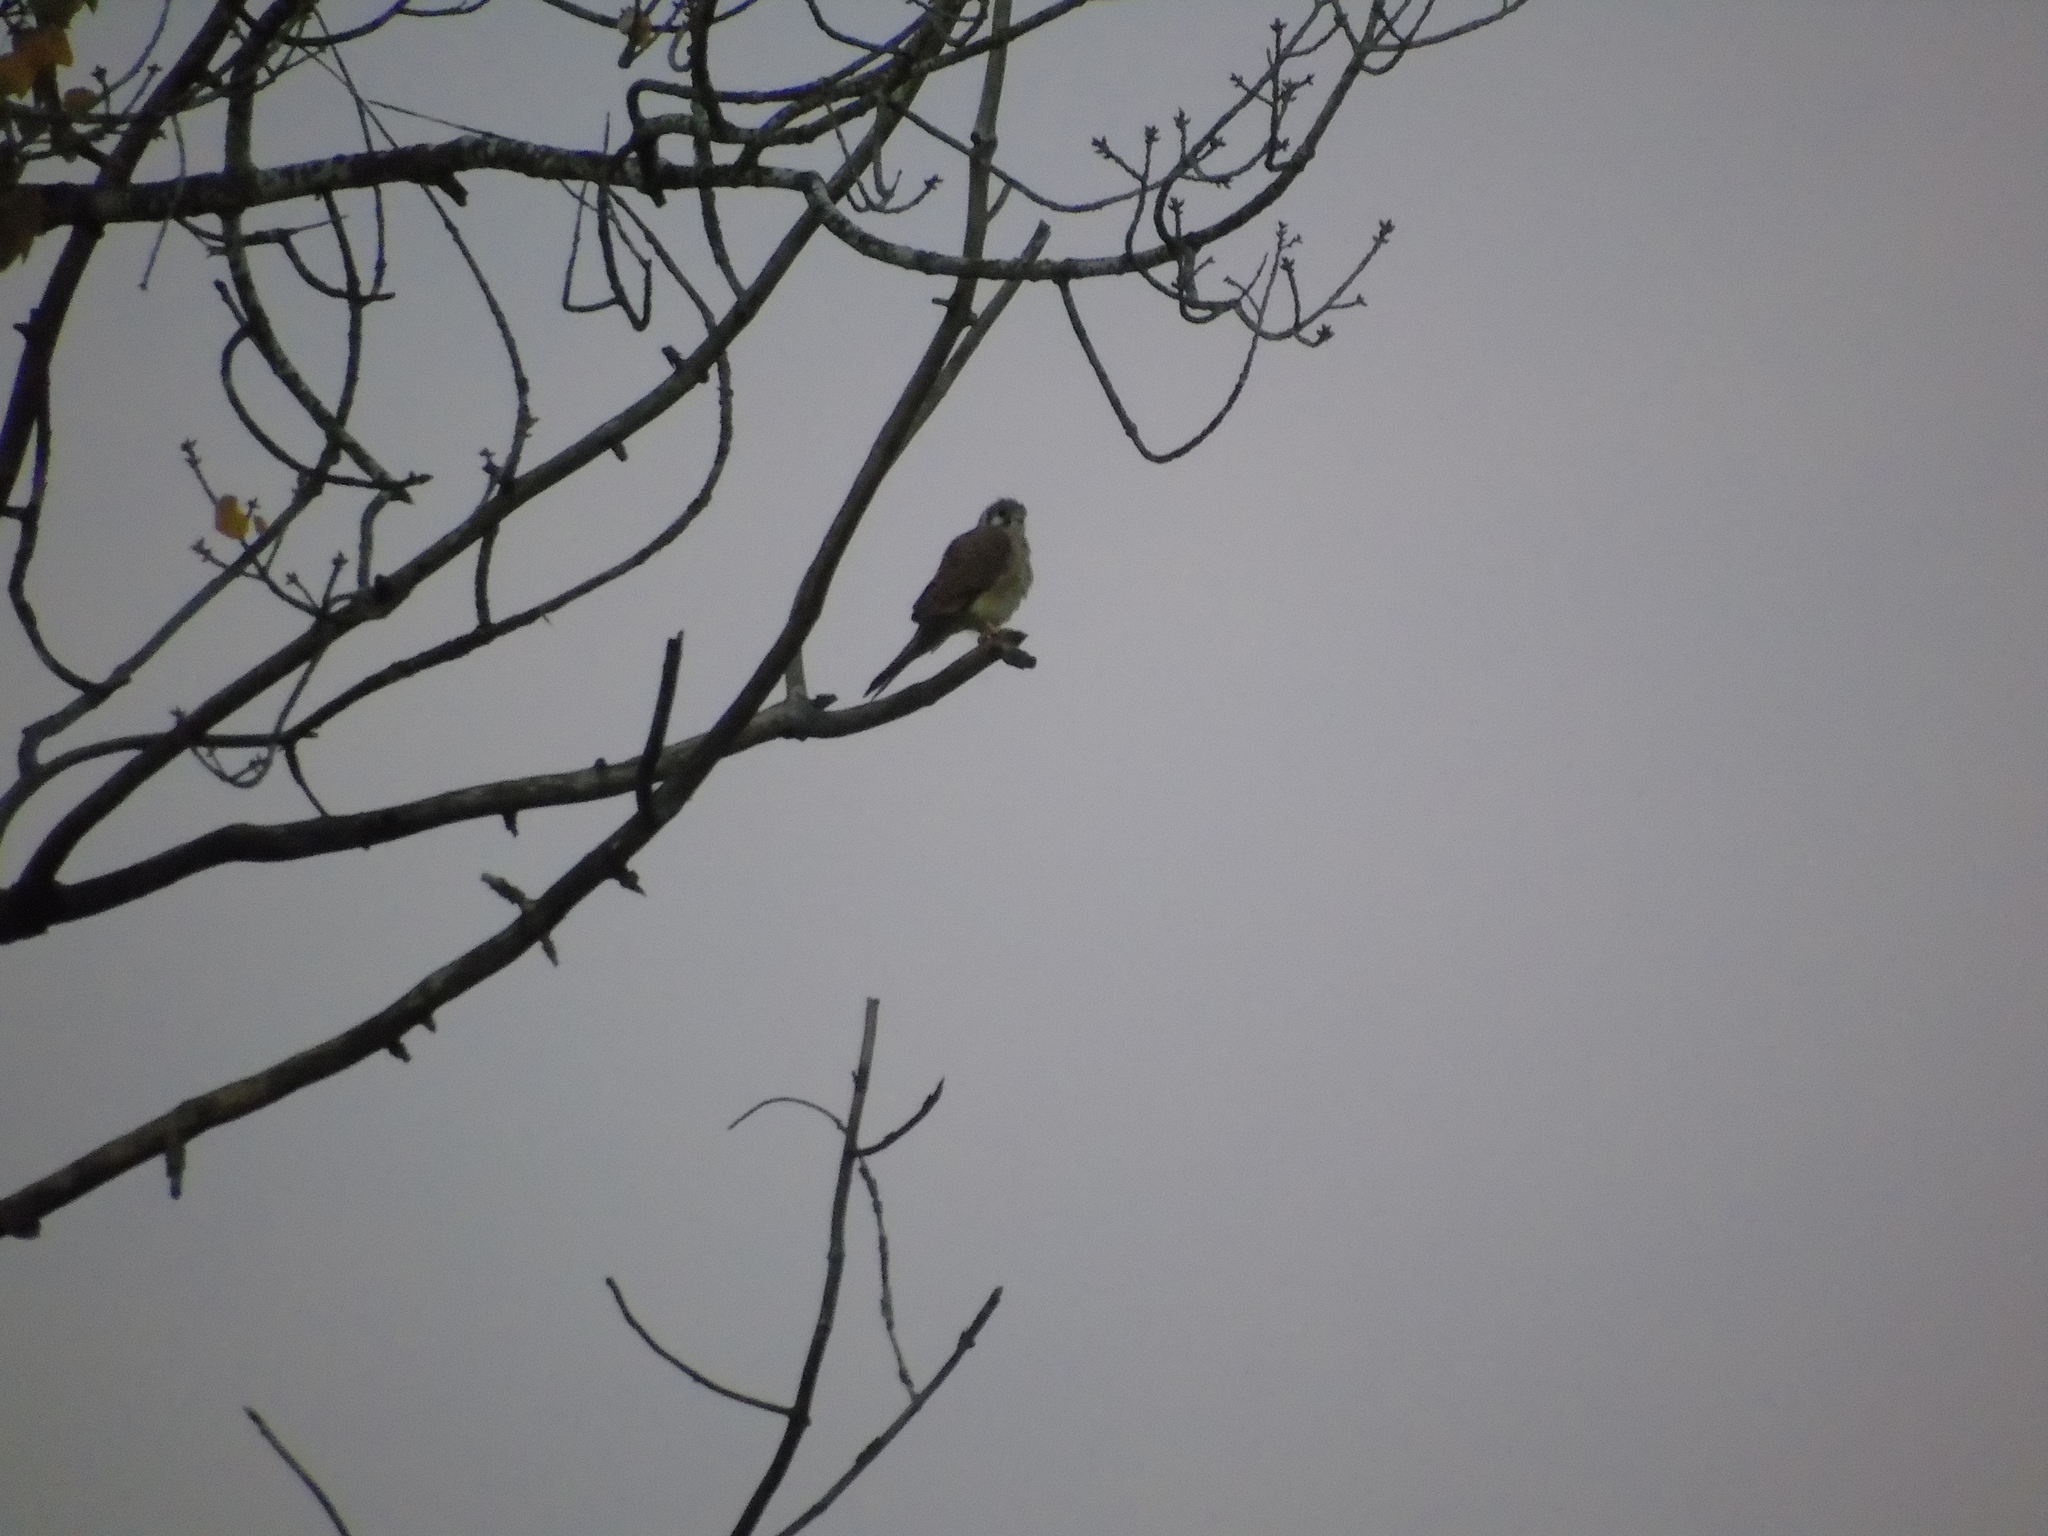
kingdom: Animalia
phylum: Chordata
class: Aves
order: Falconiformes
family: Falconidae
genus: Falco
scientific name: Falco sparverius
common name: American kestrel
